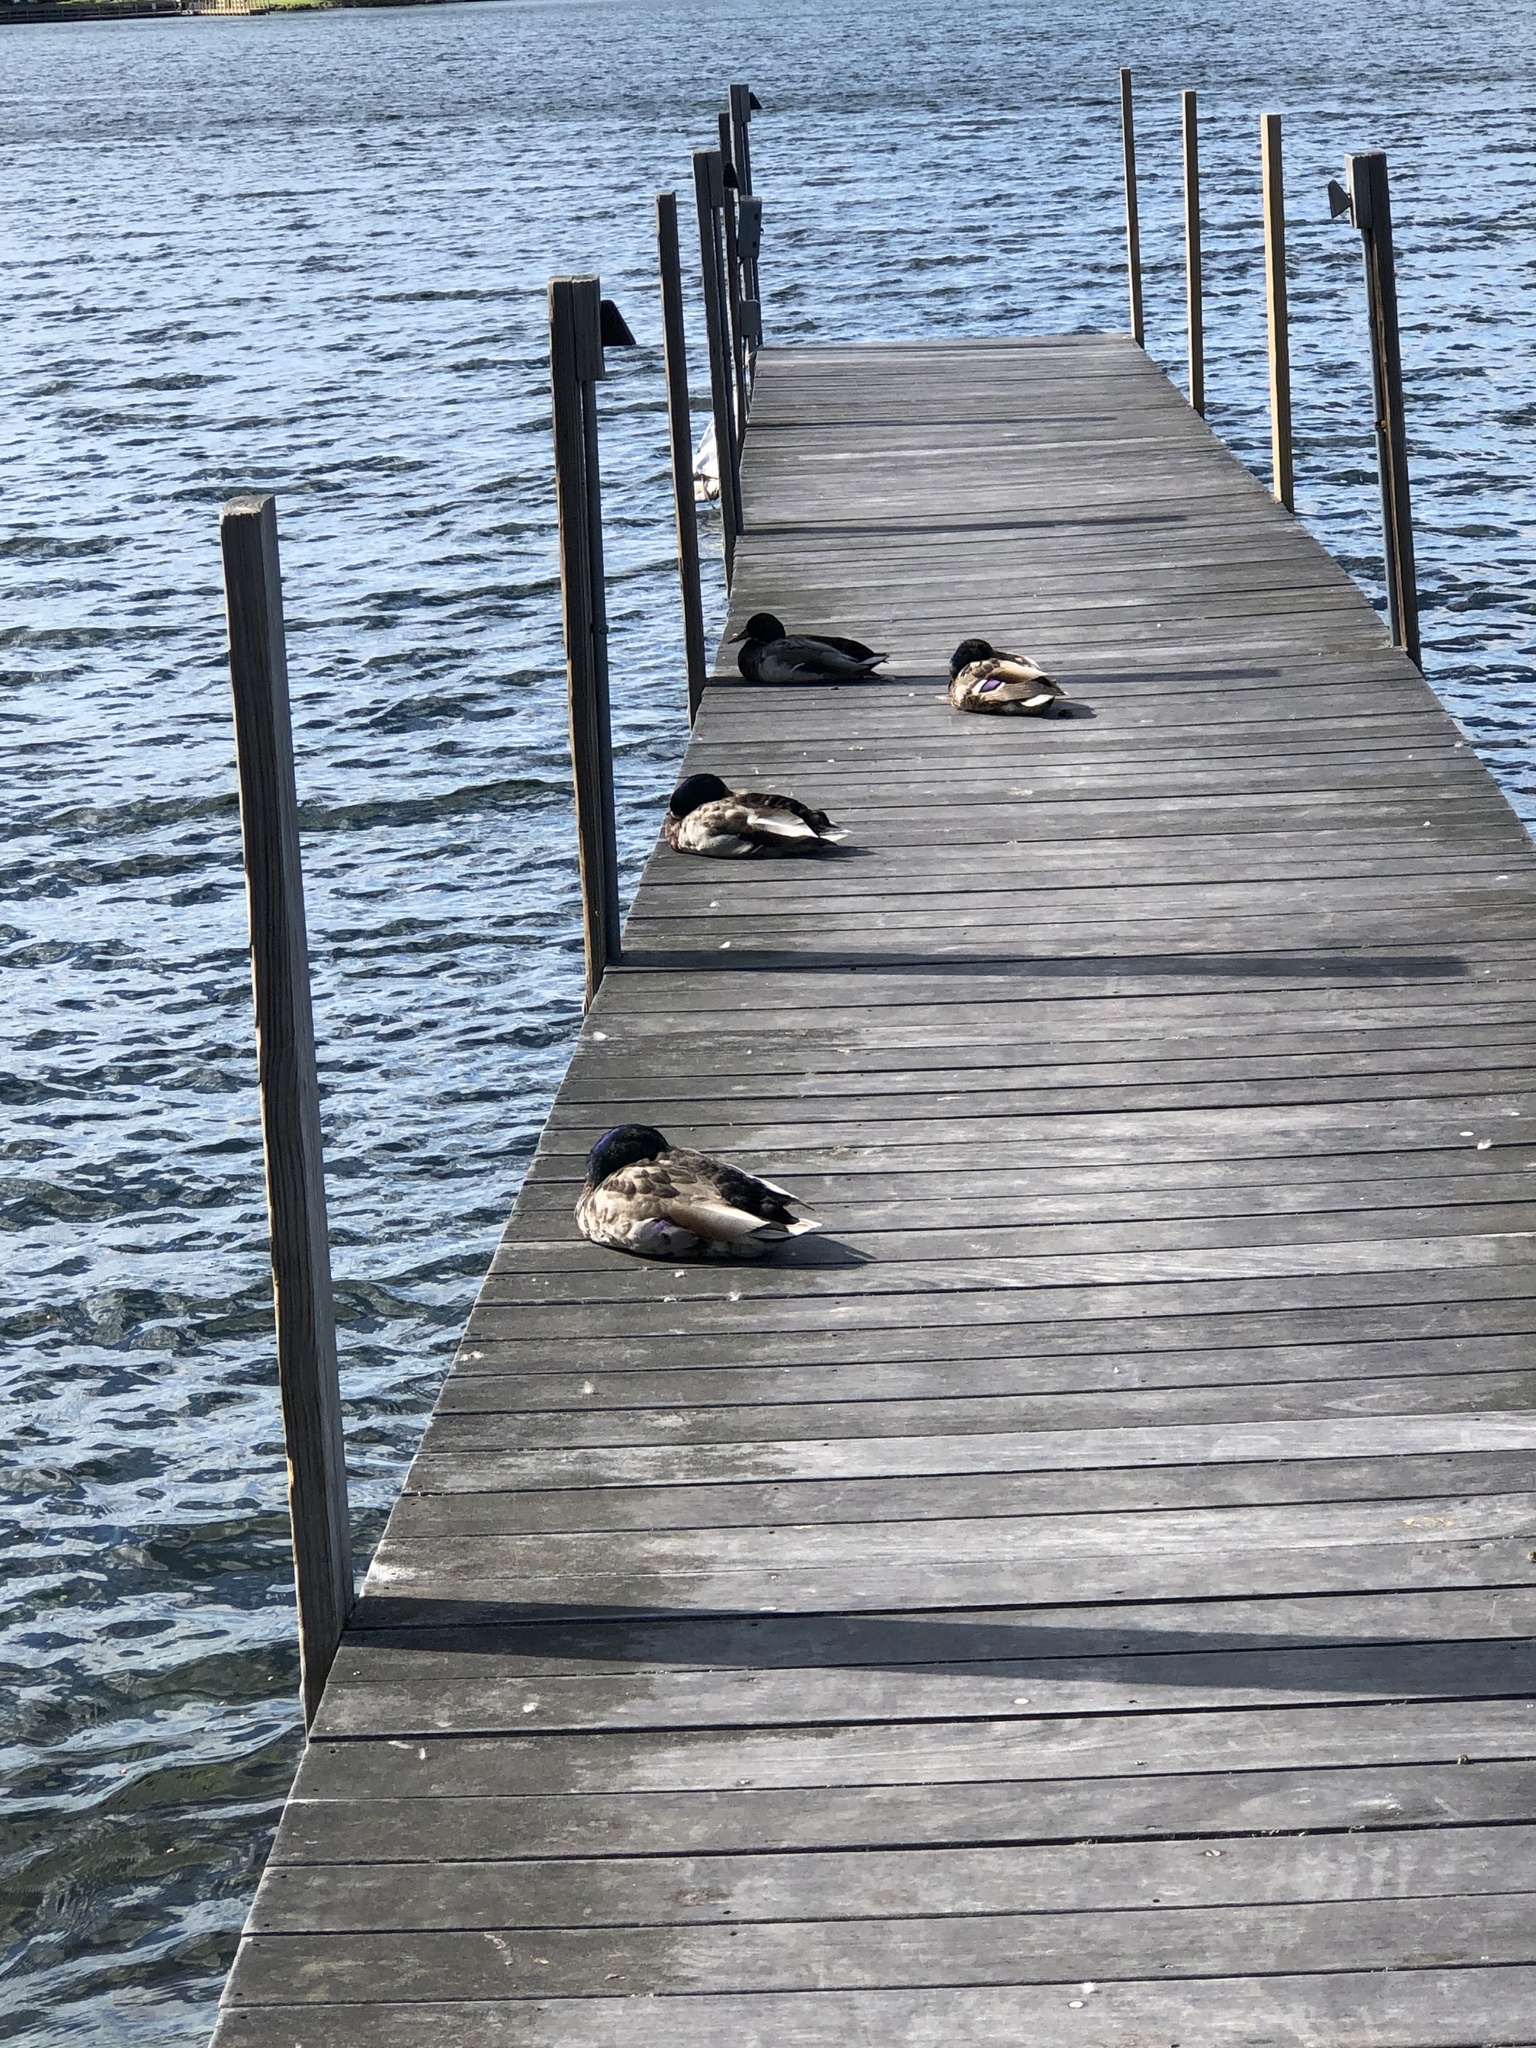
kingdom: Animalia
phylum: Chordata
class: Aves
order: Anseriformes
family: Anatidae
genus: Anas
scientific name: Anas platyrhynchos
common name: Mallard
